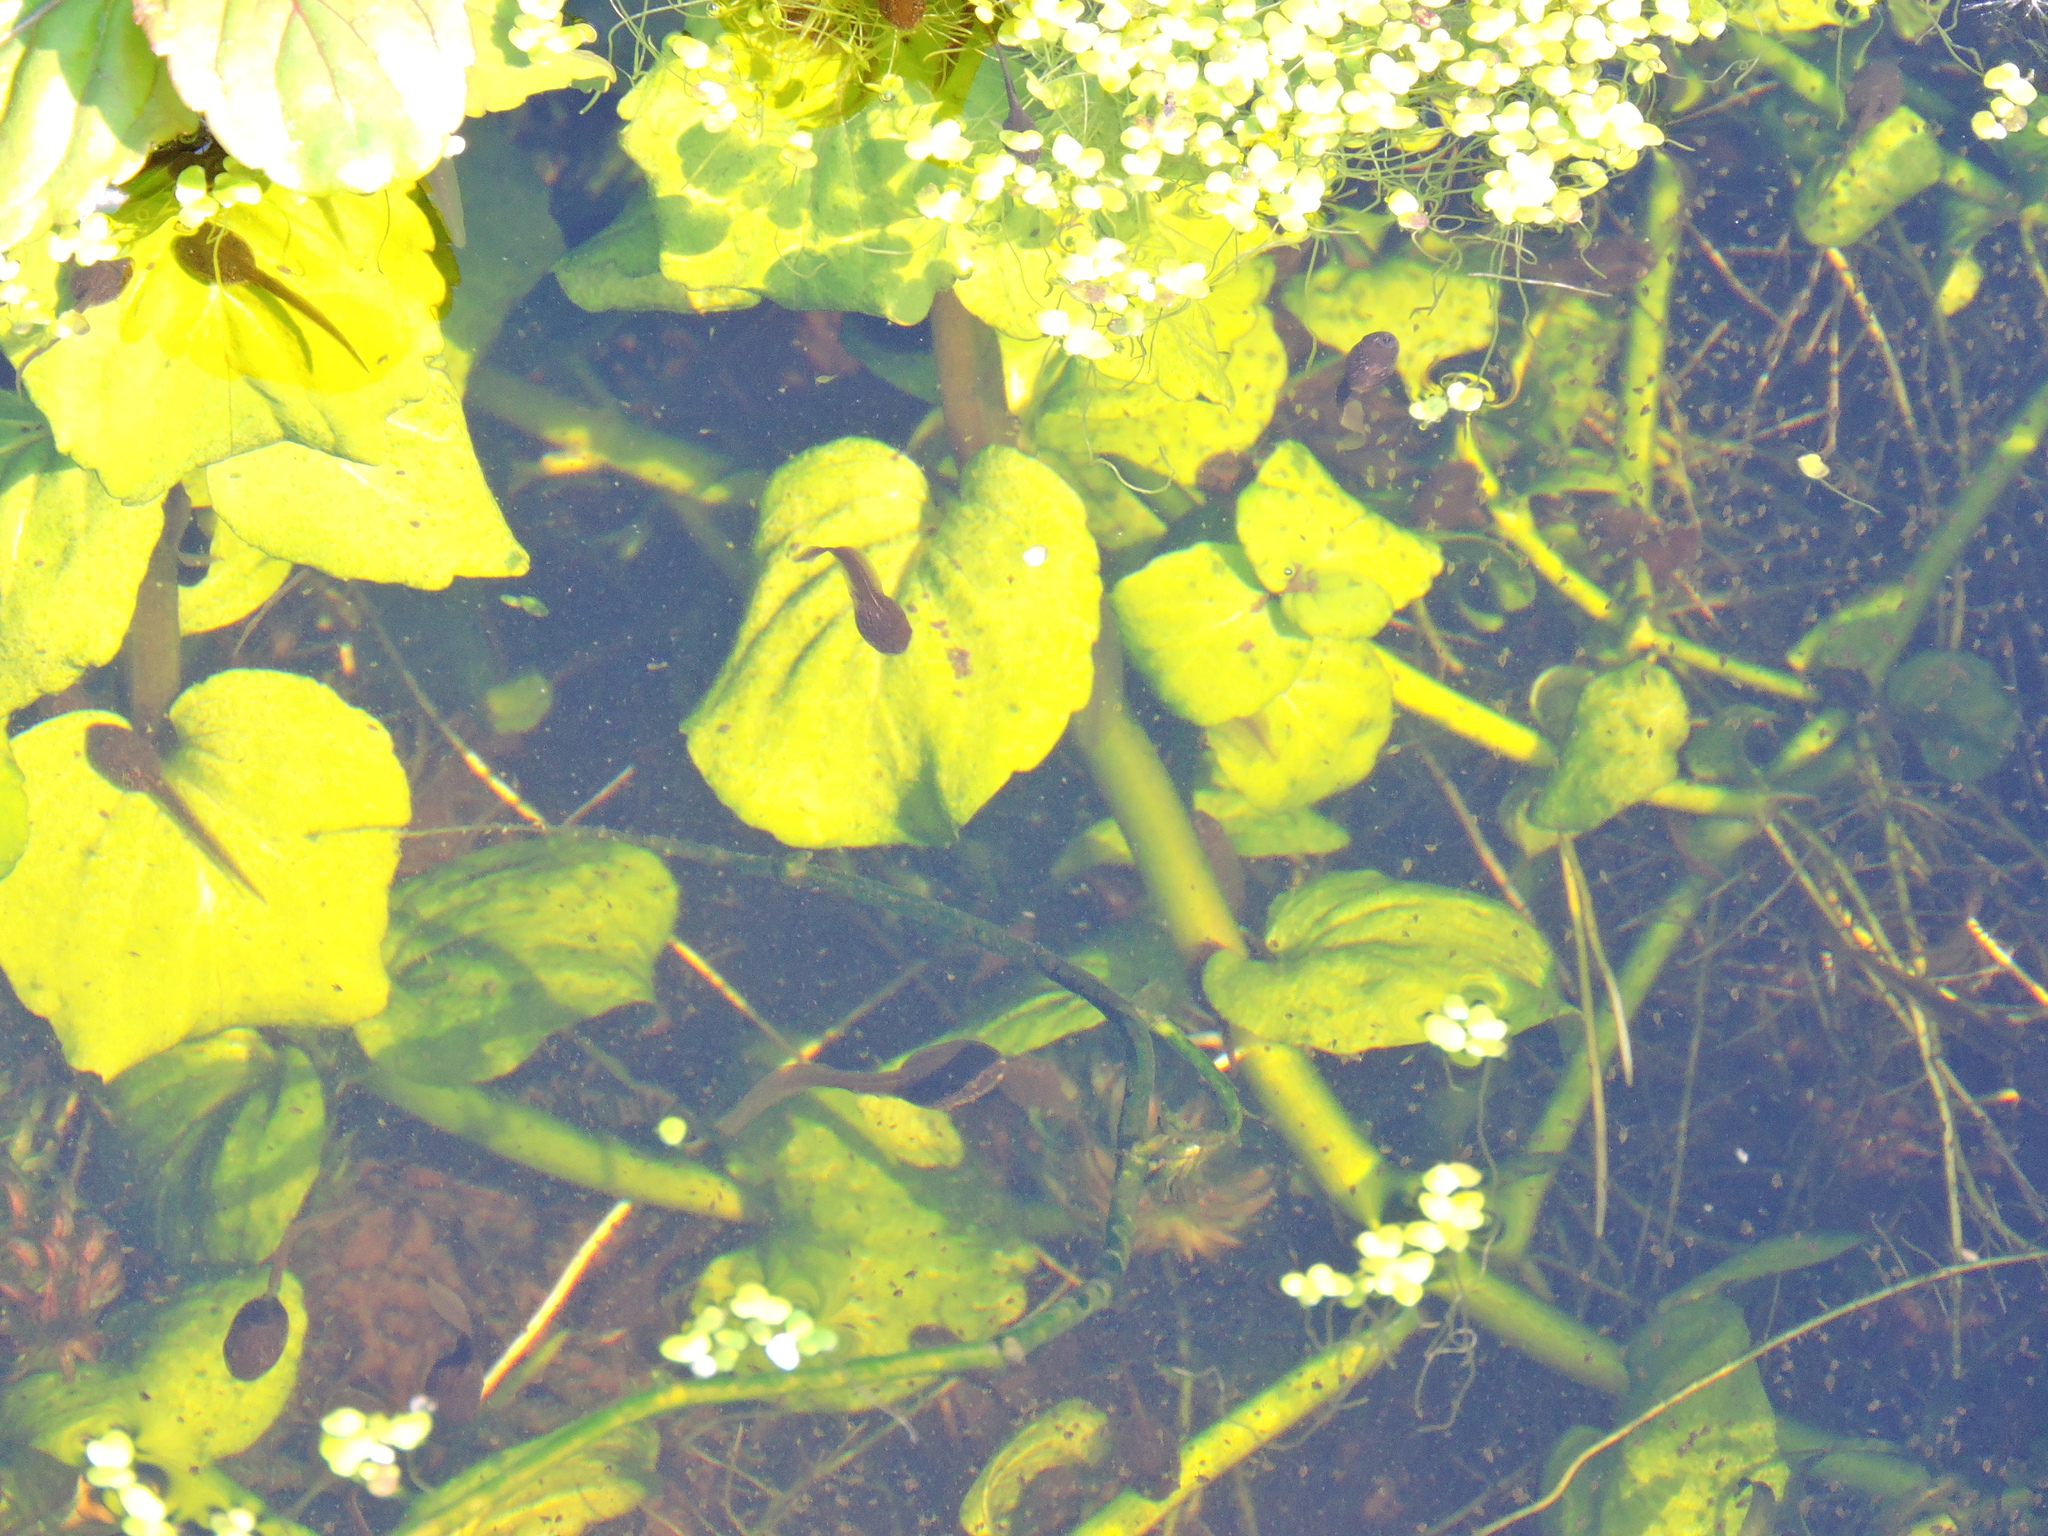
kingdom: Animalia
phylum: Chordata
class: Amphibia
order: Anura
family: Ranidae
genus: Rana
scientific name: Rana temporaria
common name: Common frog
